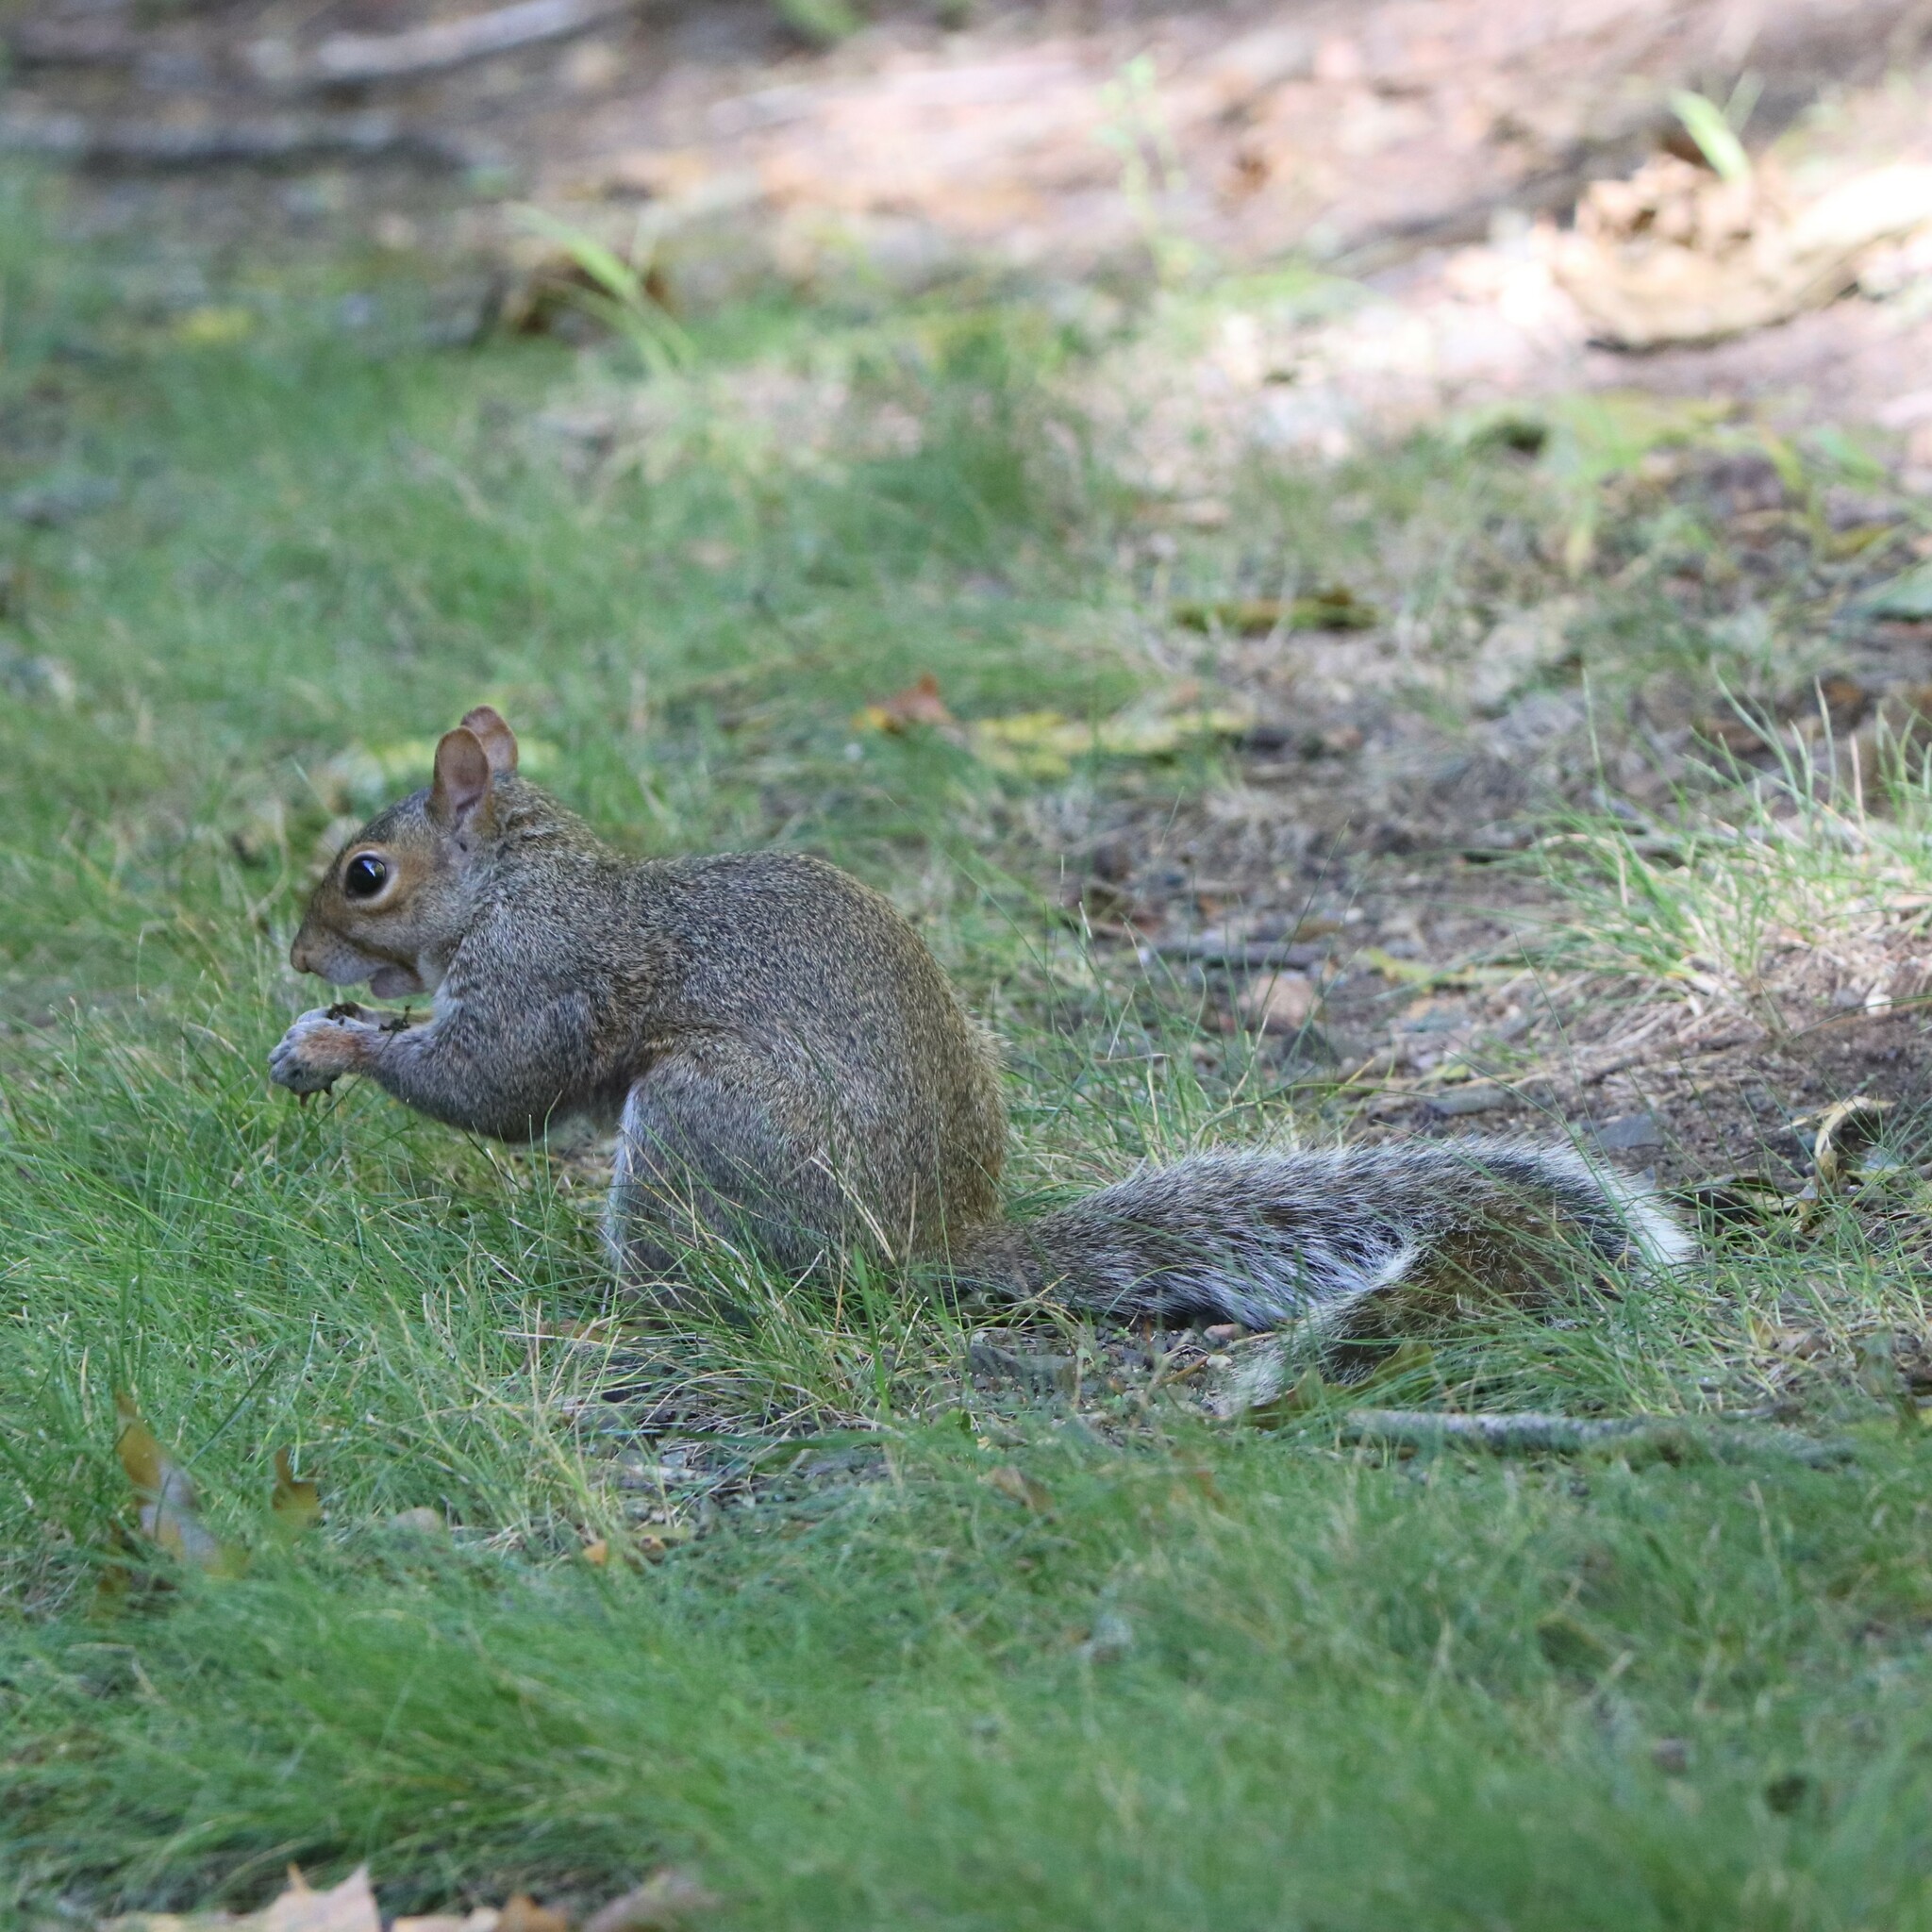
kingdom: Animalia
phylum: Chordata
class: Mammalia
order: Rodentia
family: Sciuridae
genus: Sciurus
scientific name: Sciurus carolinensis
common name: Eastern gray squirrel
